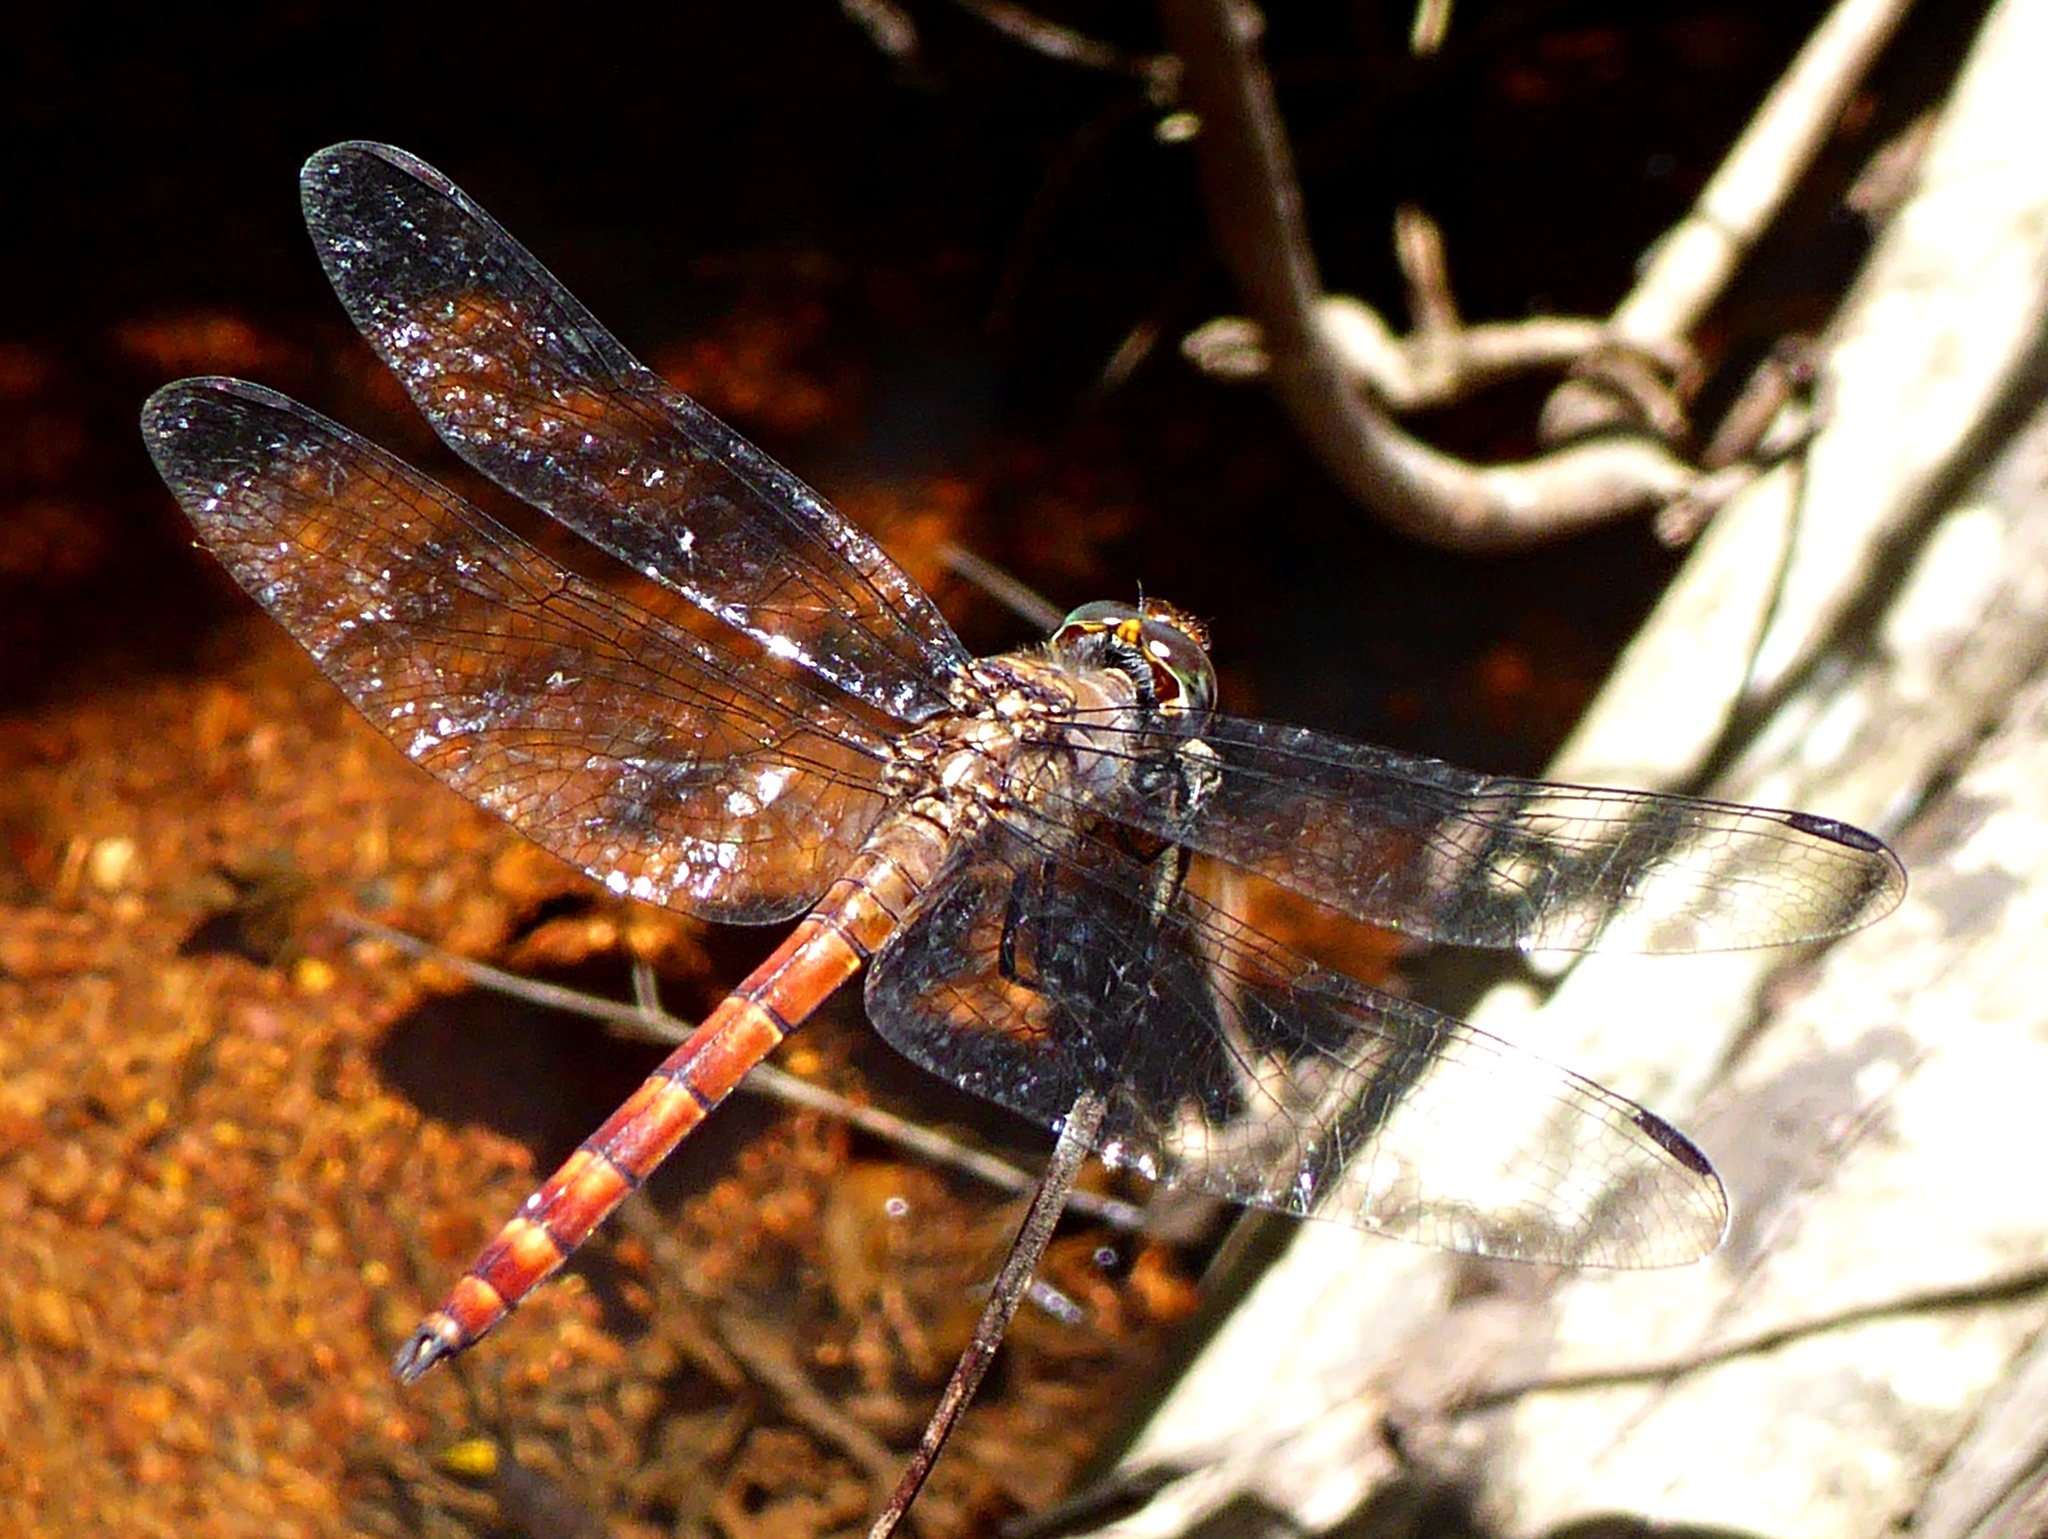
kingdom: Animalia
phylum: Arthropoda
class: Insecta
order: Odonata
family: Libellulidae
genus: Elasmothemis
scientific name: Elasmothemis cannacrioides
